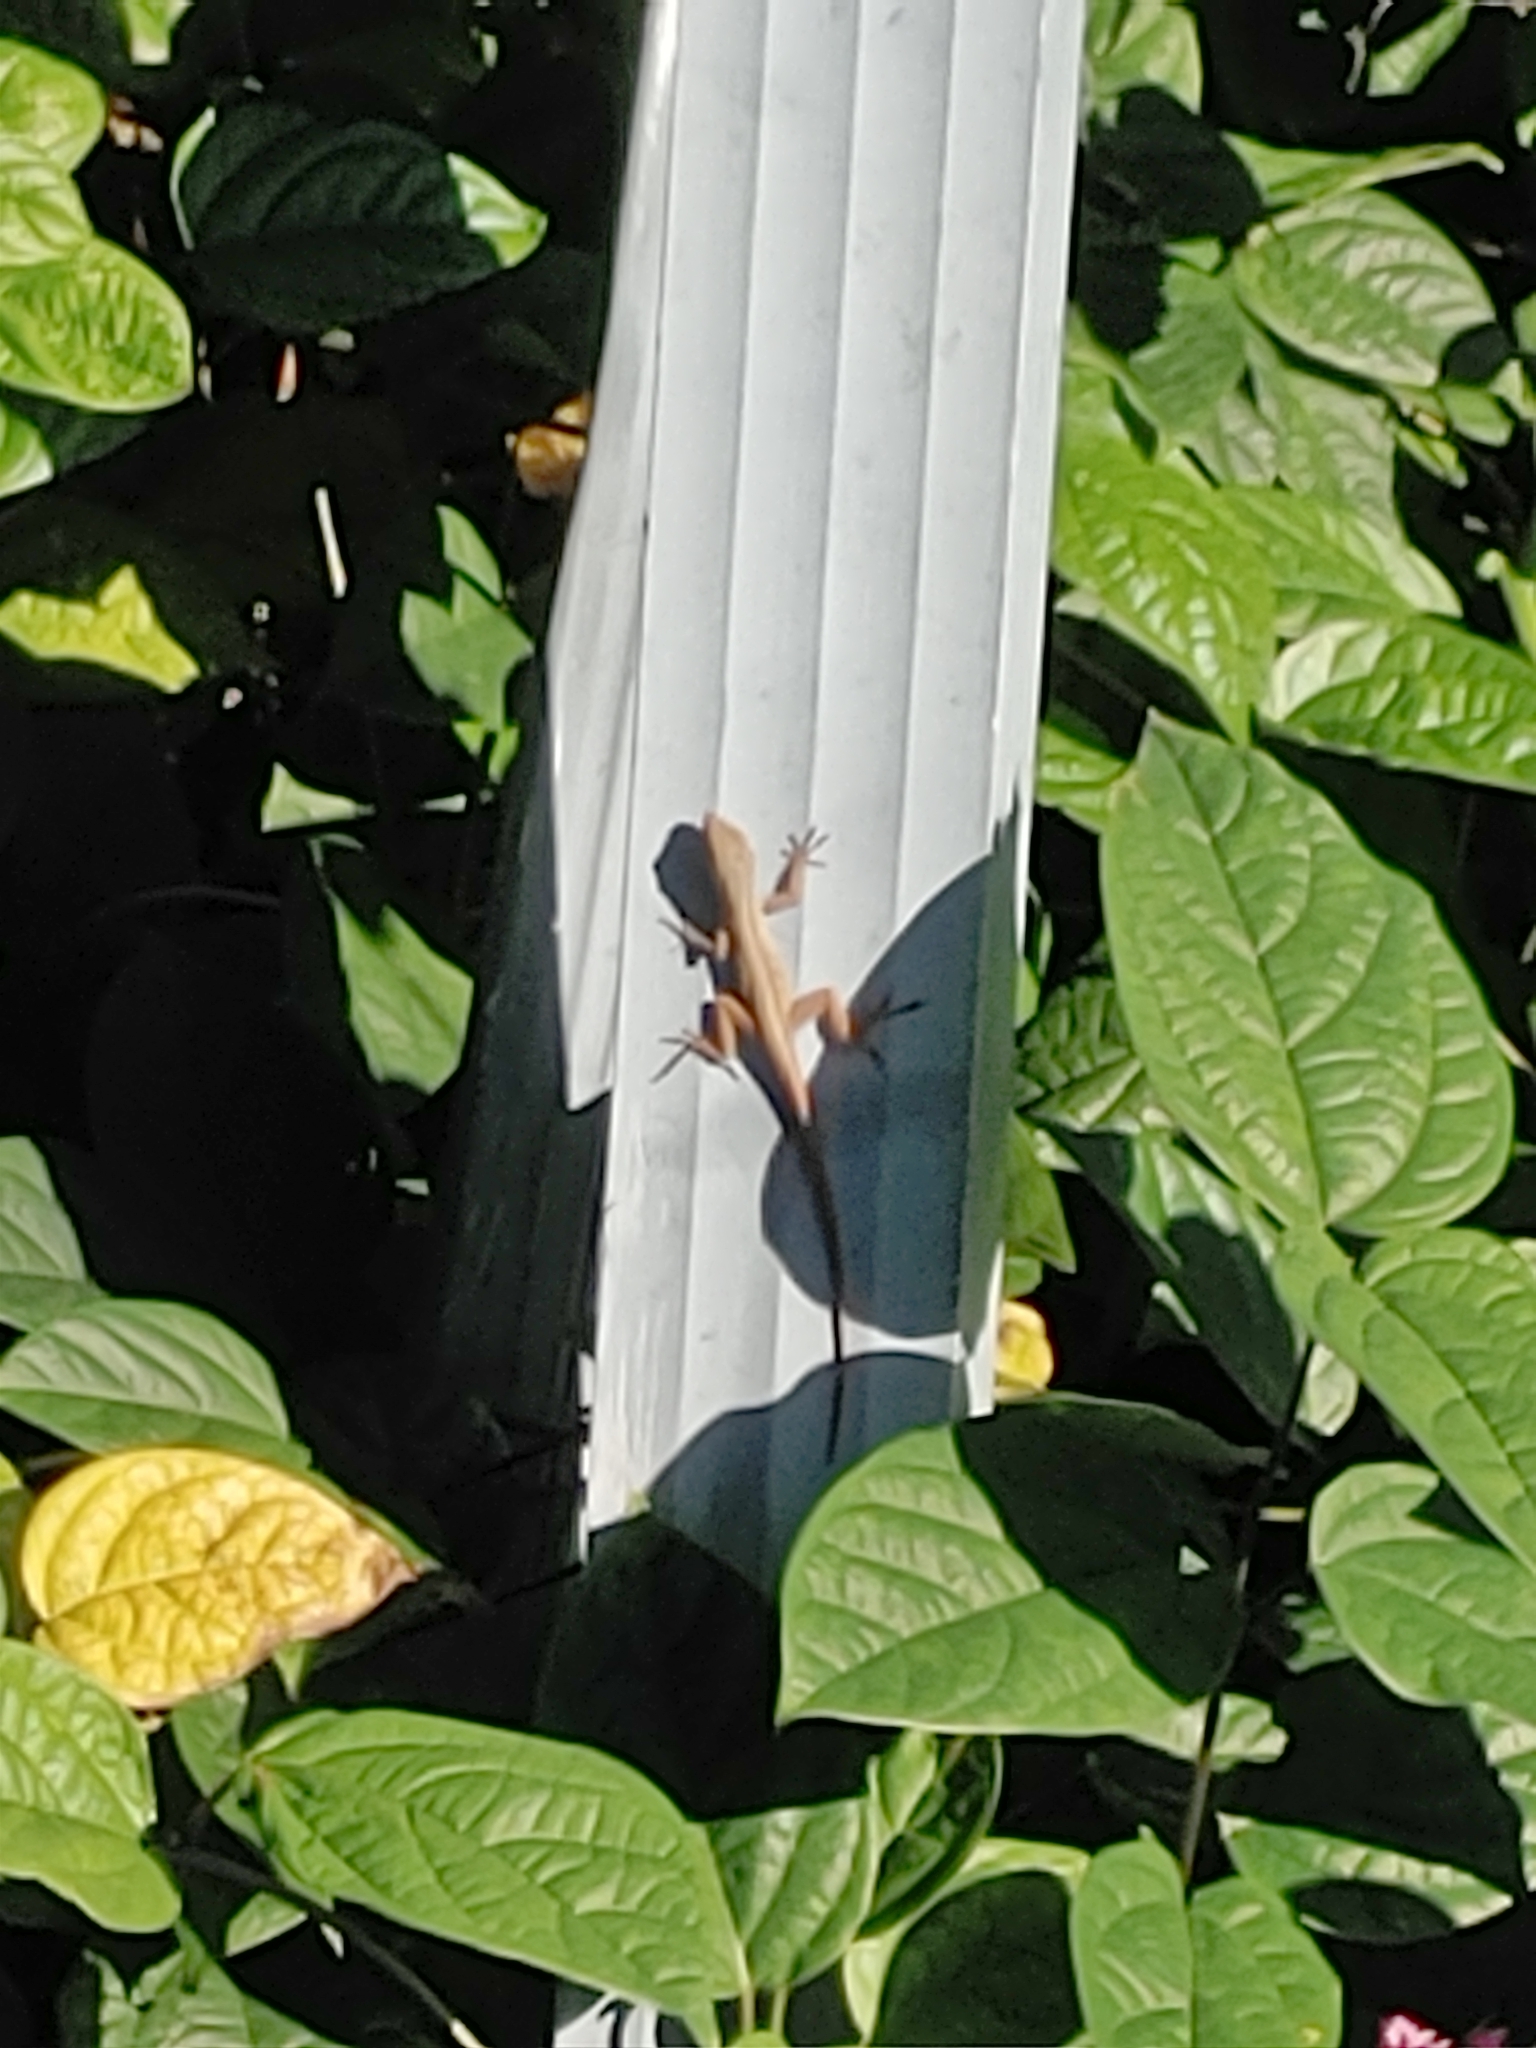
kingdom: Animalia
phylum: Chordata
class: Squamata
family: Dactyloidae
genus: Anolis
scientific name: Anolis sagrei
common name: Brown anole
